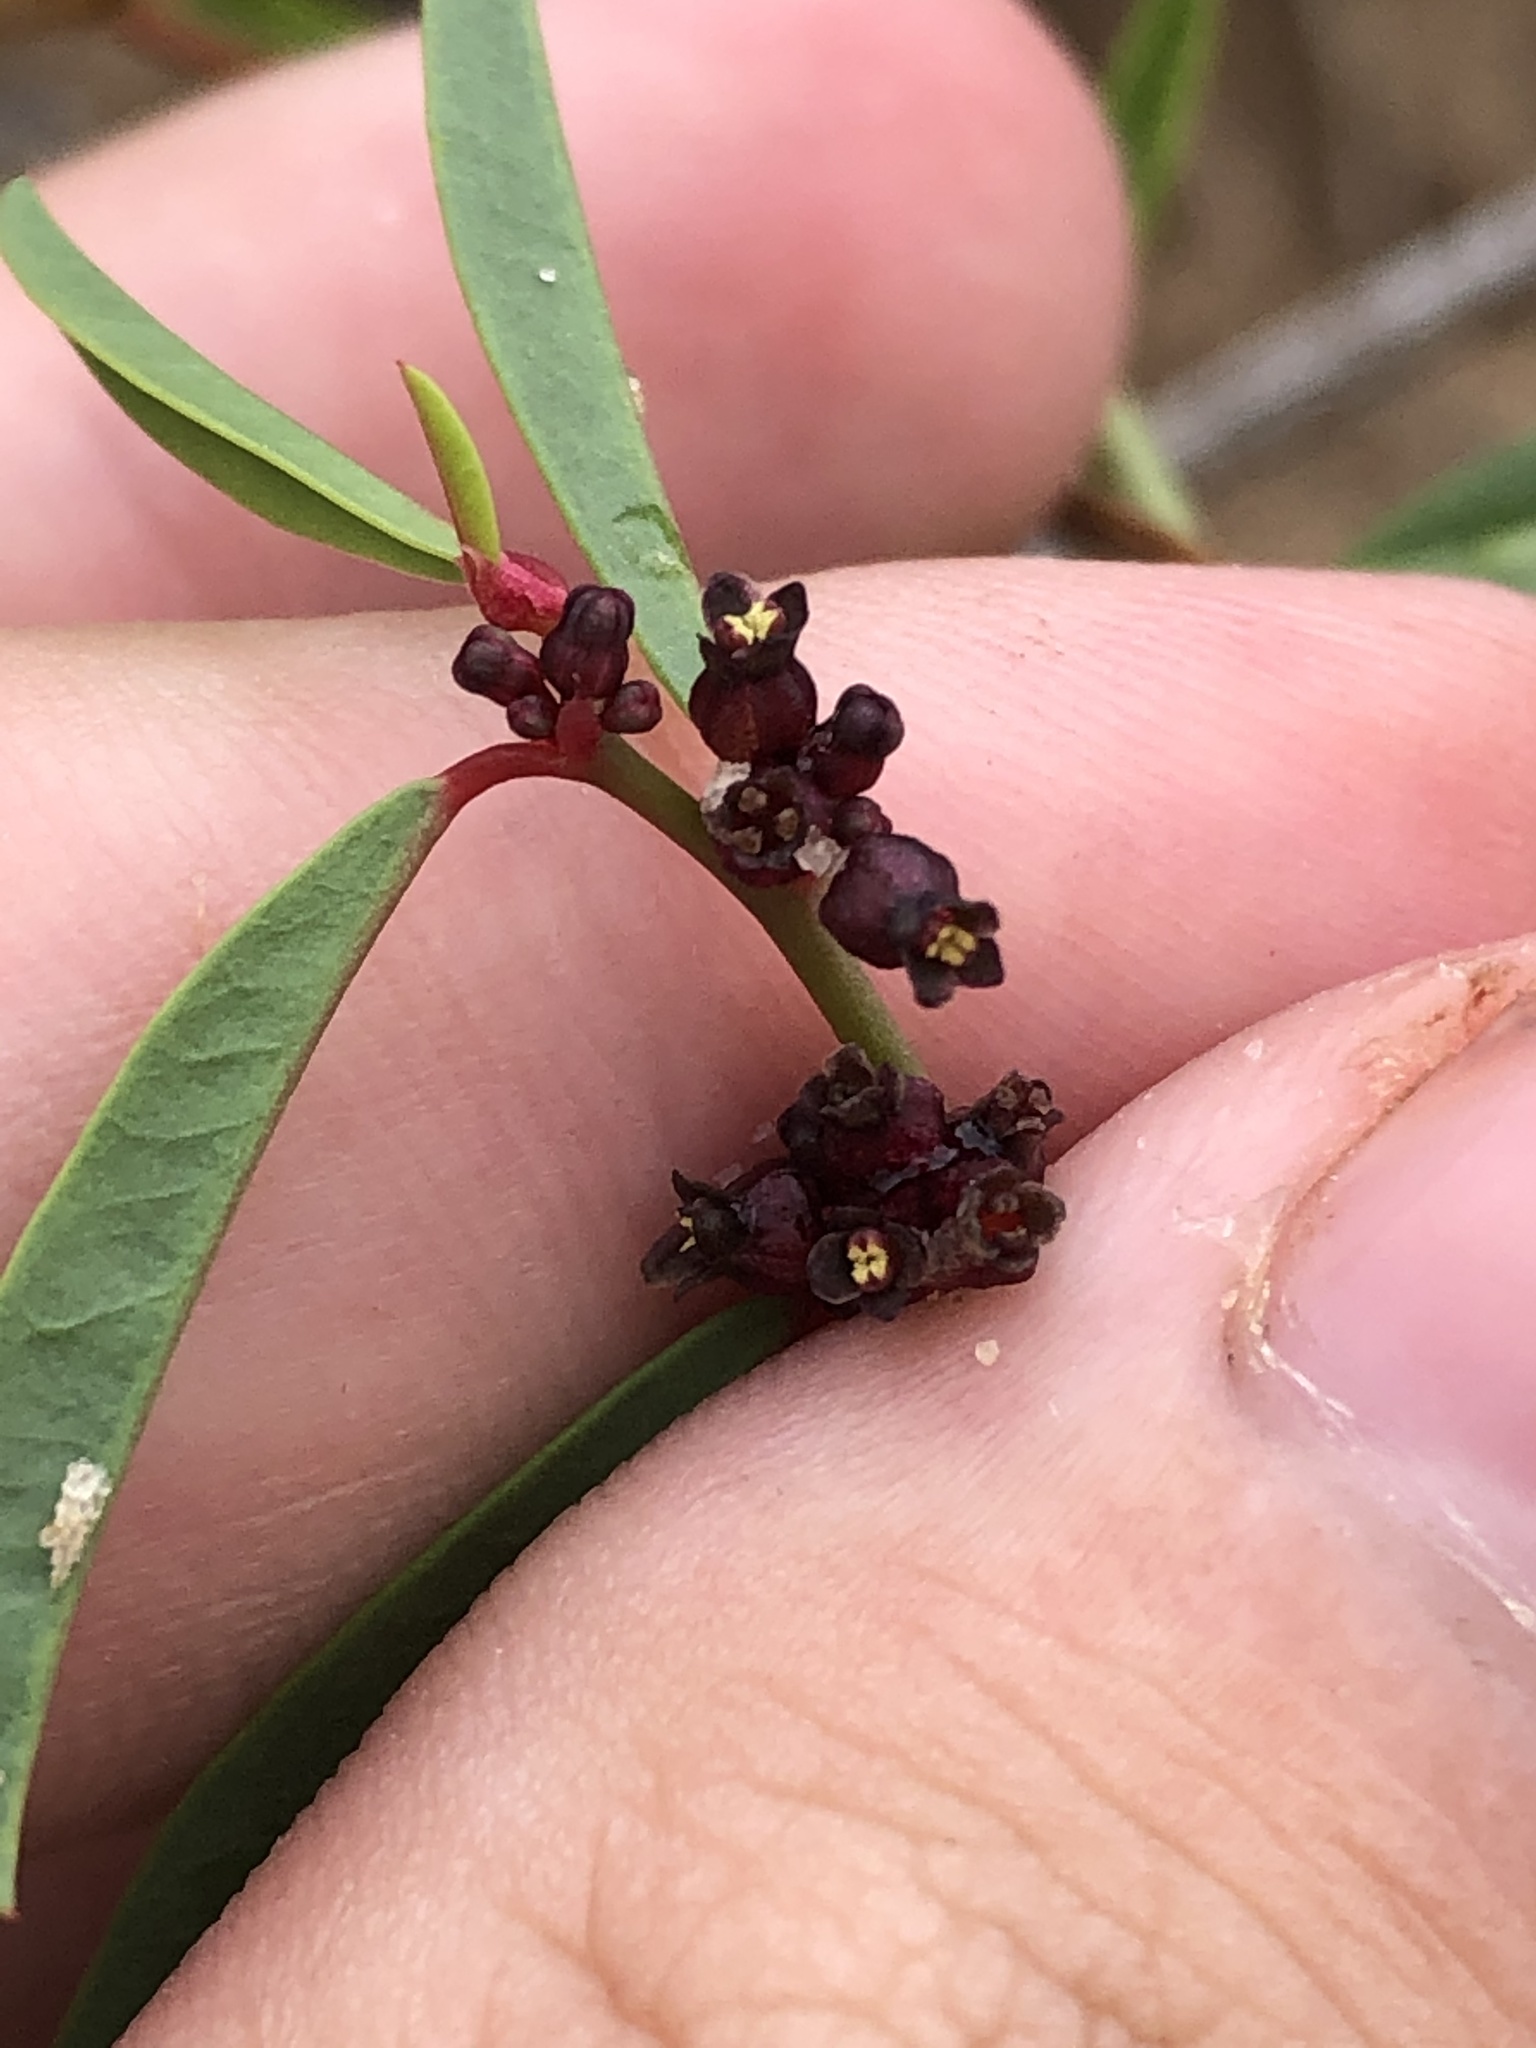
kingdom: Plantae
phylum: Tracheophyta
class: Magnoliopsida
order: Malpighiales
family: Phyllanthaceae
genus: Phyllanthus
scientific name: Phyllanthus warnockii
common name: Sand reverchonia
